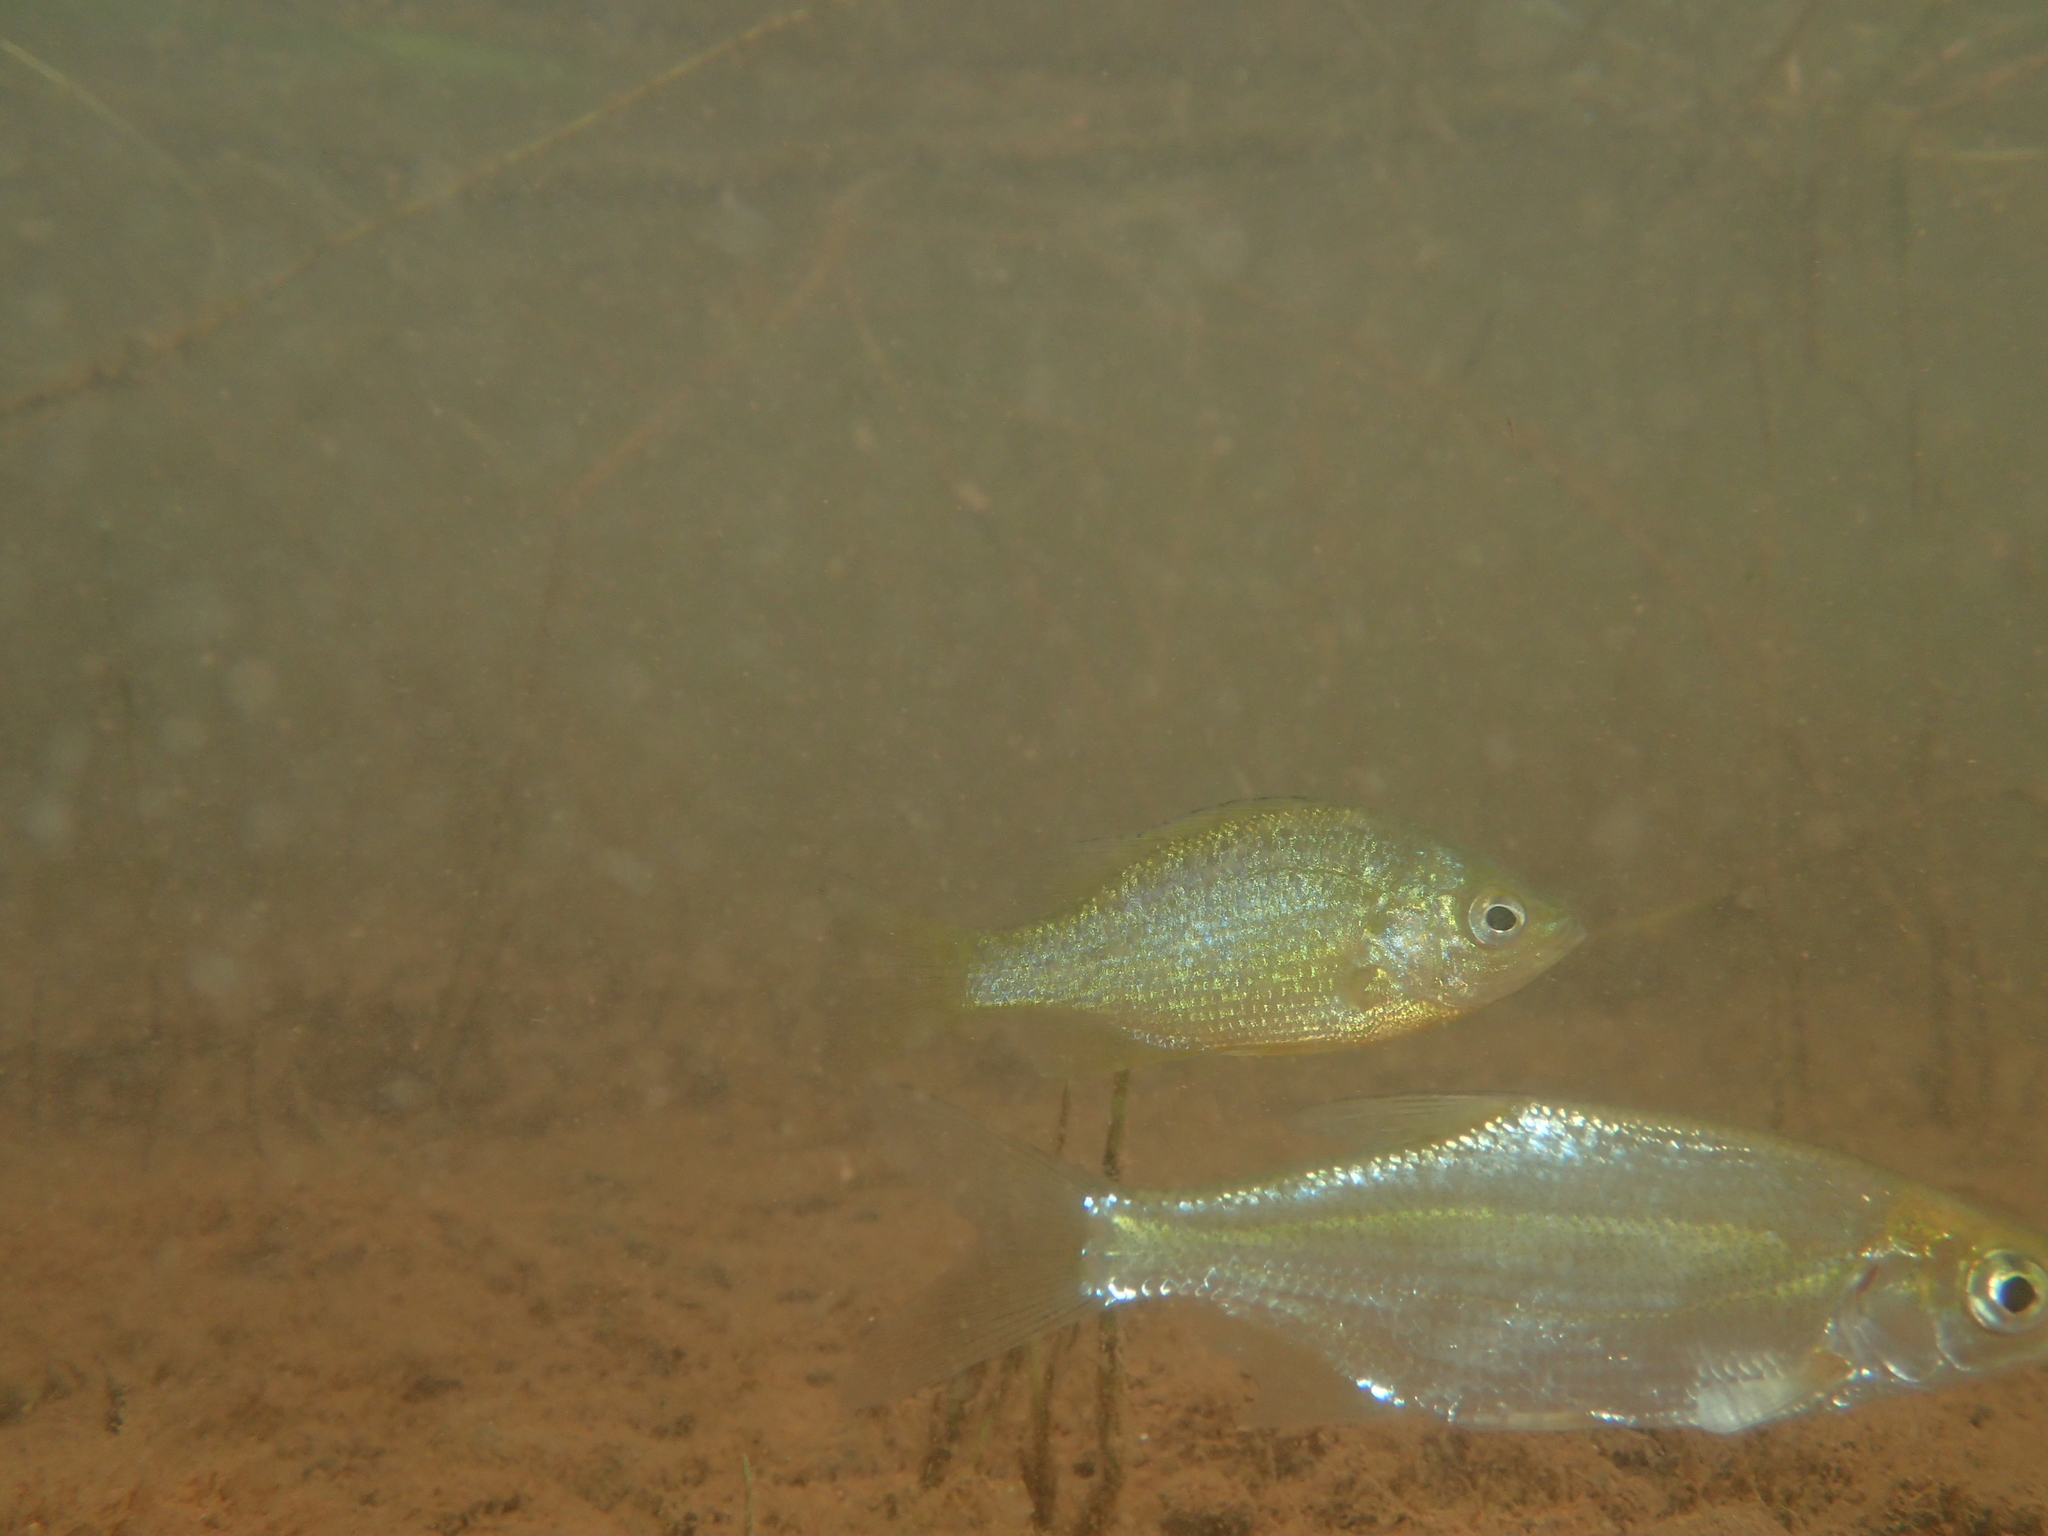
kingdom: Animalia
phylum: Chordata
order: Perciformes
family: Centrarchidae
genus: Lepomis
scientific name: Lepomis gibbosus
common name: Pumpkinseed
